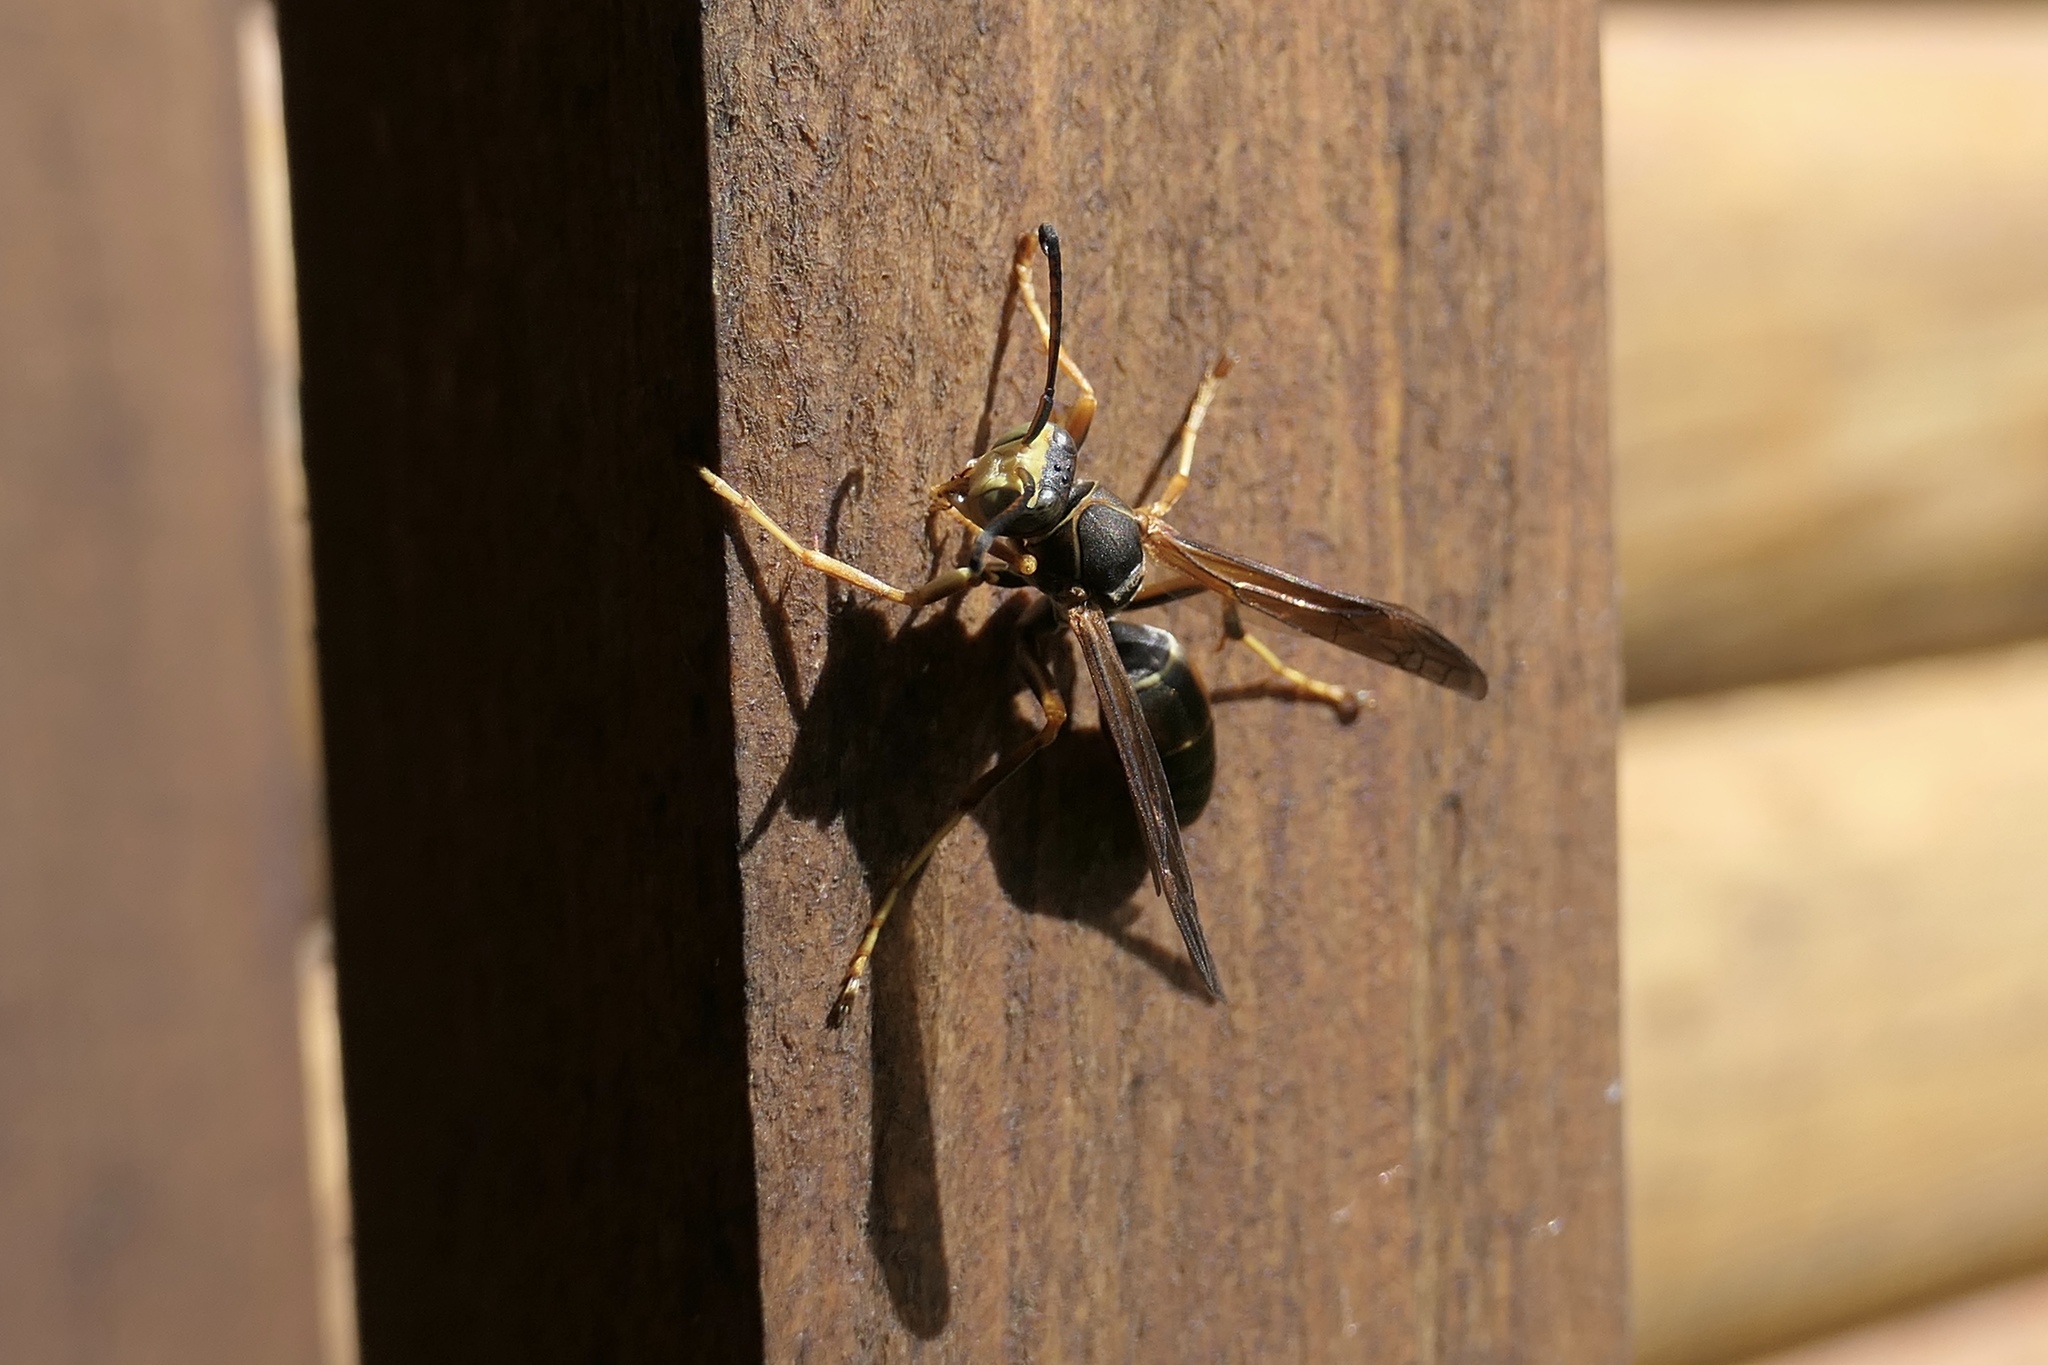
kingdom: Animalia
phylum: Arthropoda
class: Insecta
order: Hymenoptera
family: Eumenidae
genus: Polistes
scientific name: Polistes fuscatus
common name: Dark paper wasp
